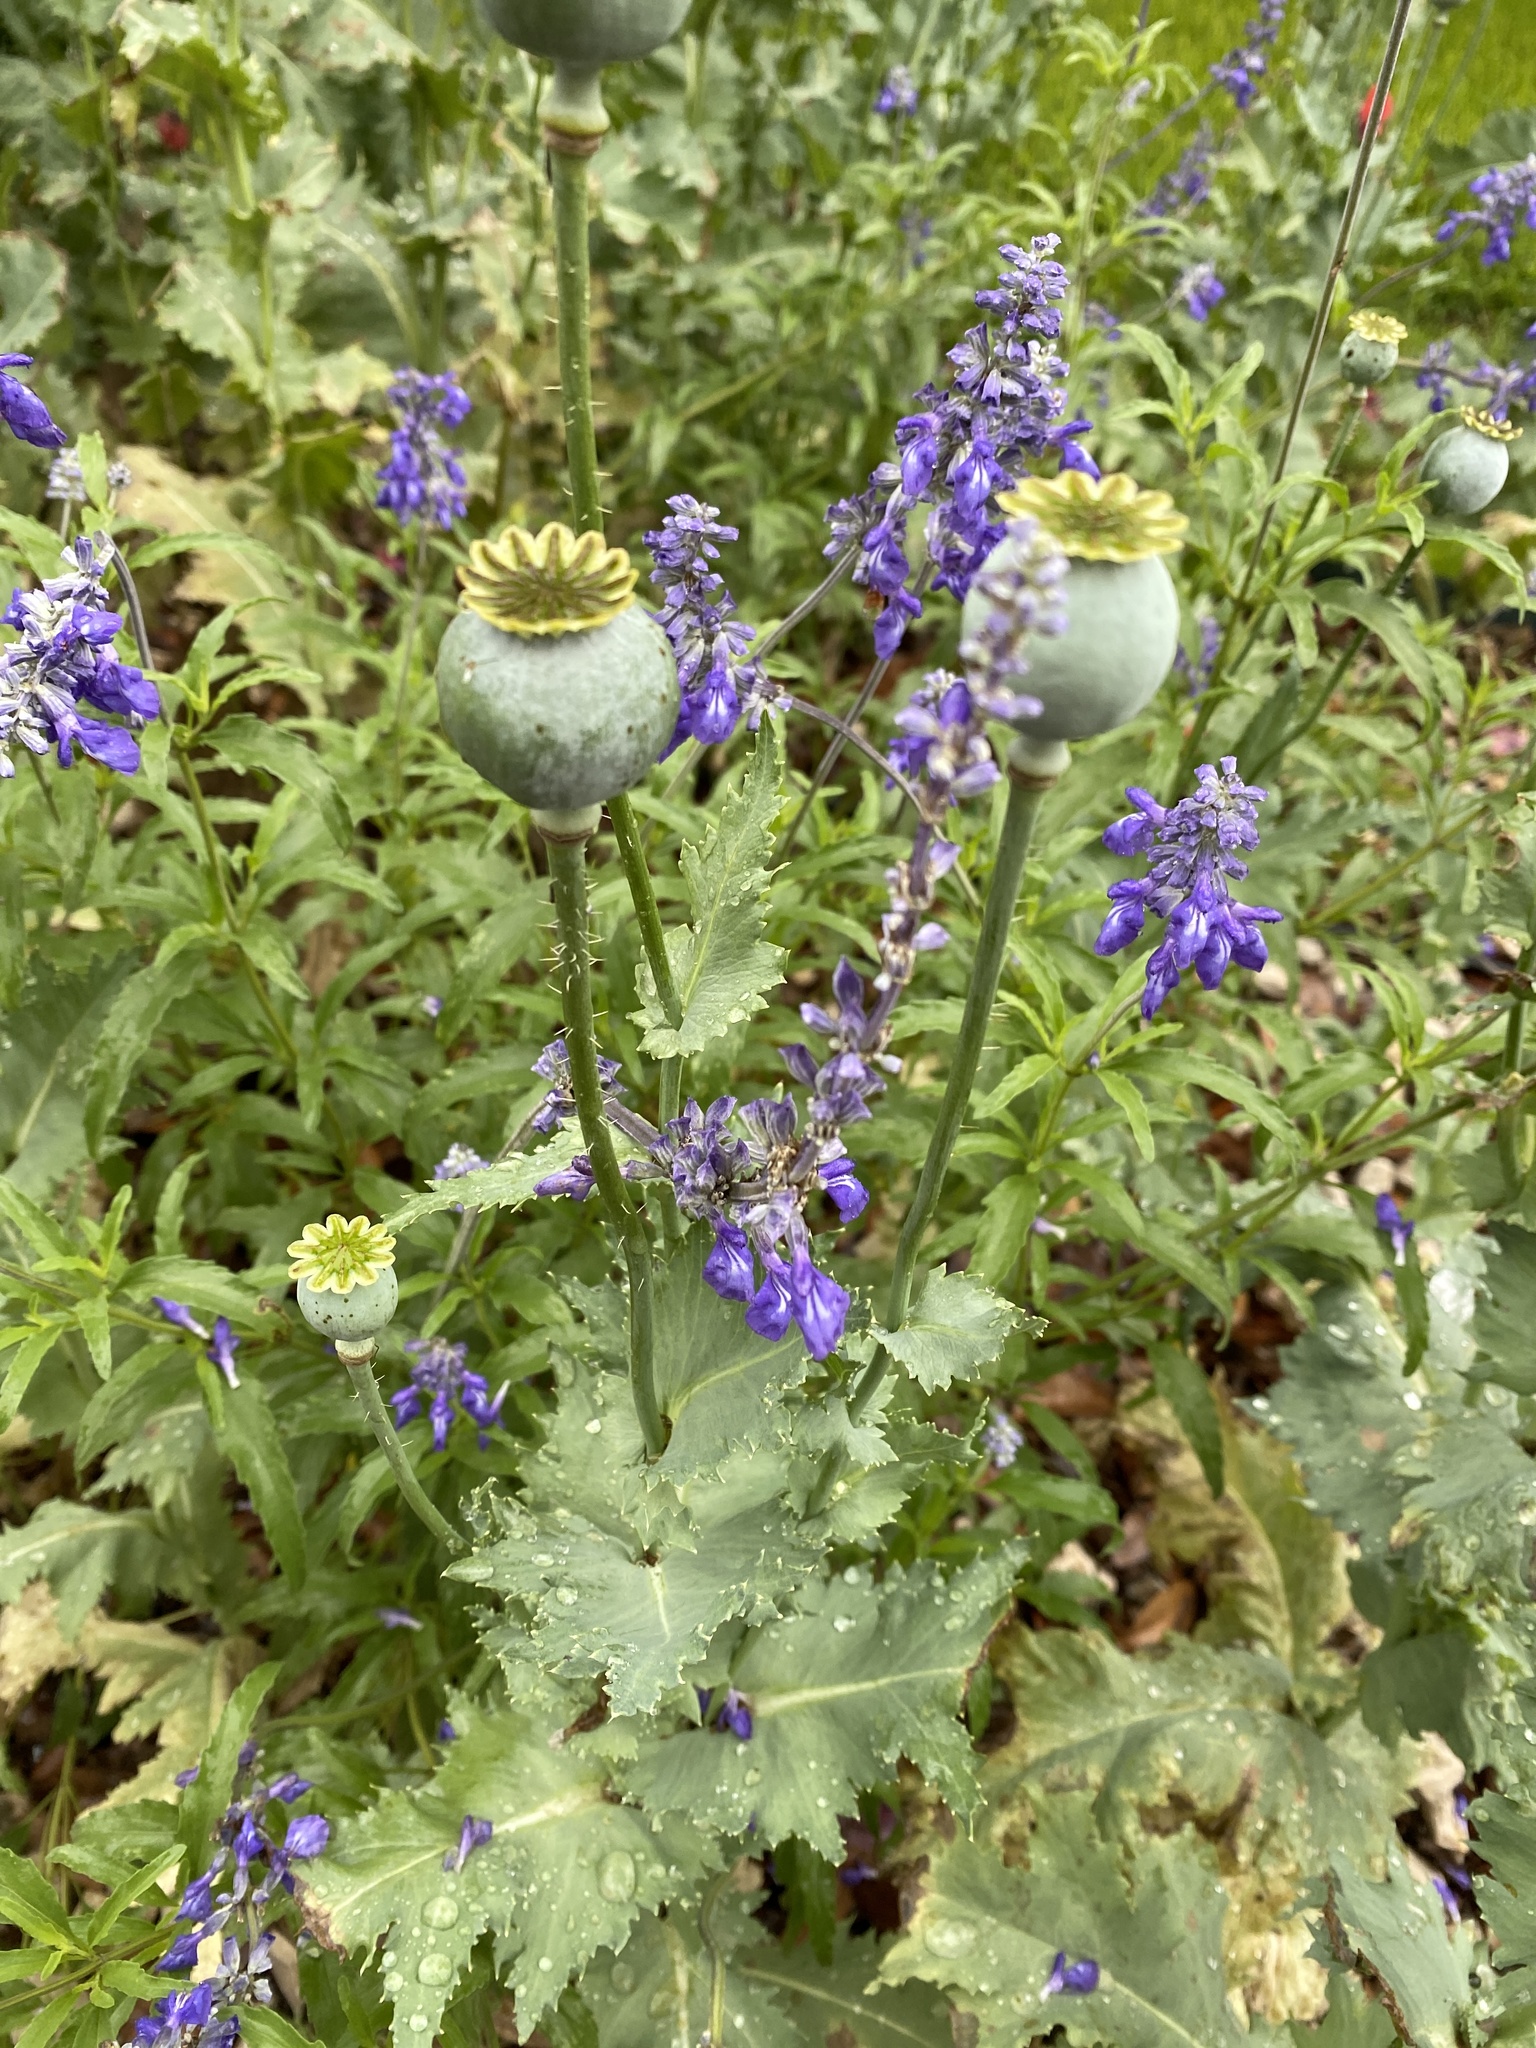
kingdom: Plantae
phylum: Tracheophyta
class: Magnoliopsida
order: Ranunculales
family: Papaveraceae
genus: Papaver
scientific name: Papaver somniferum
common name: Opium poppy
